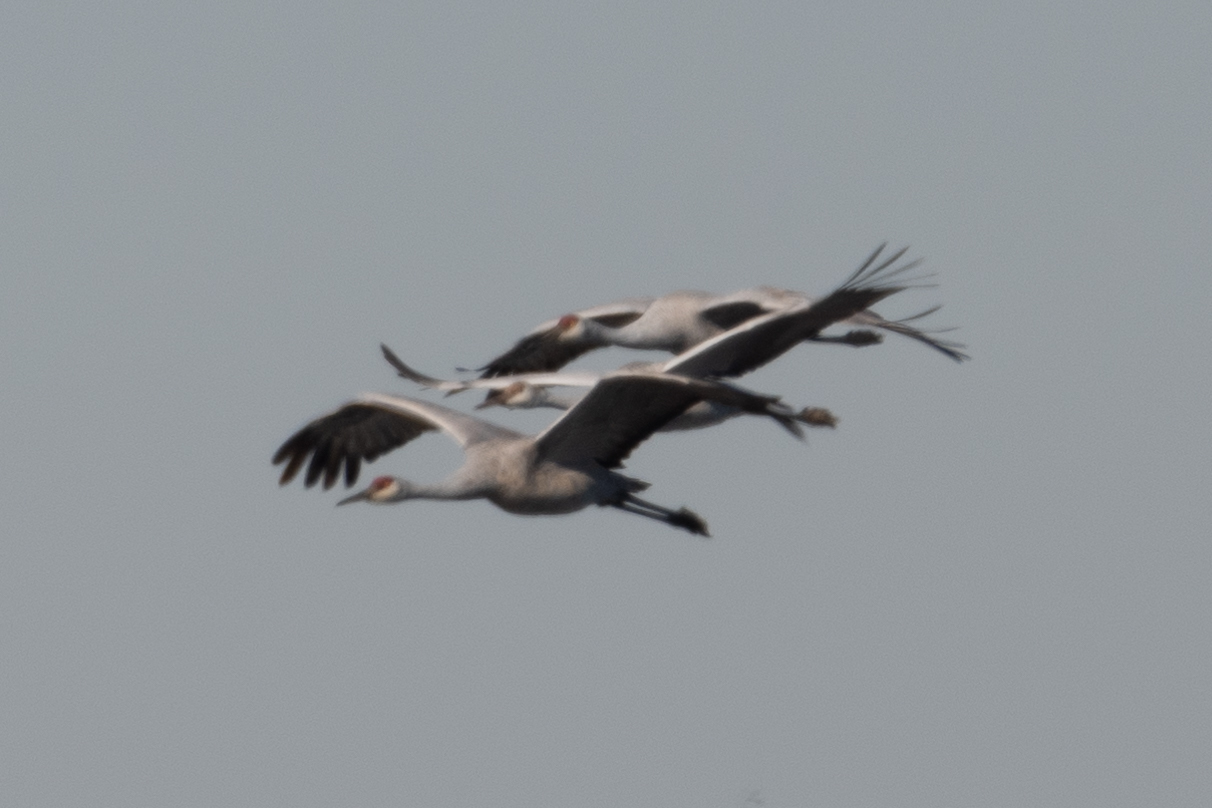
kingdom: Animalia
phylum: Chordata
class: Aves
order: Gruiformes
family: Gruidae
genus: Grus
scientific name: Grus canadensis
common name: Sandhill crane
